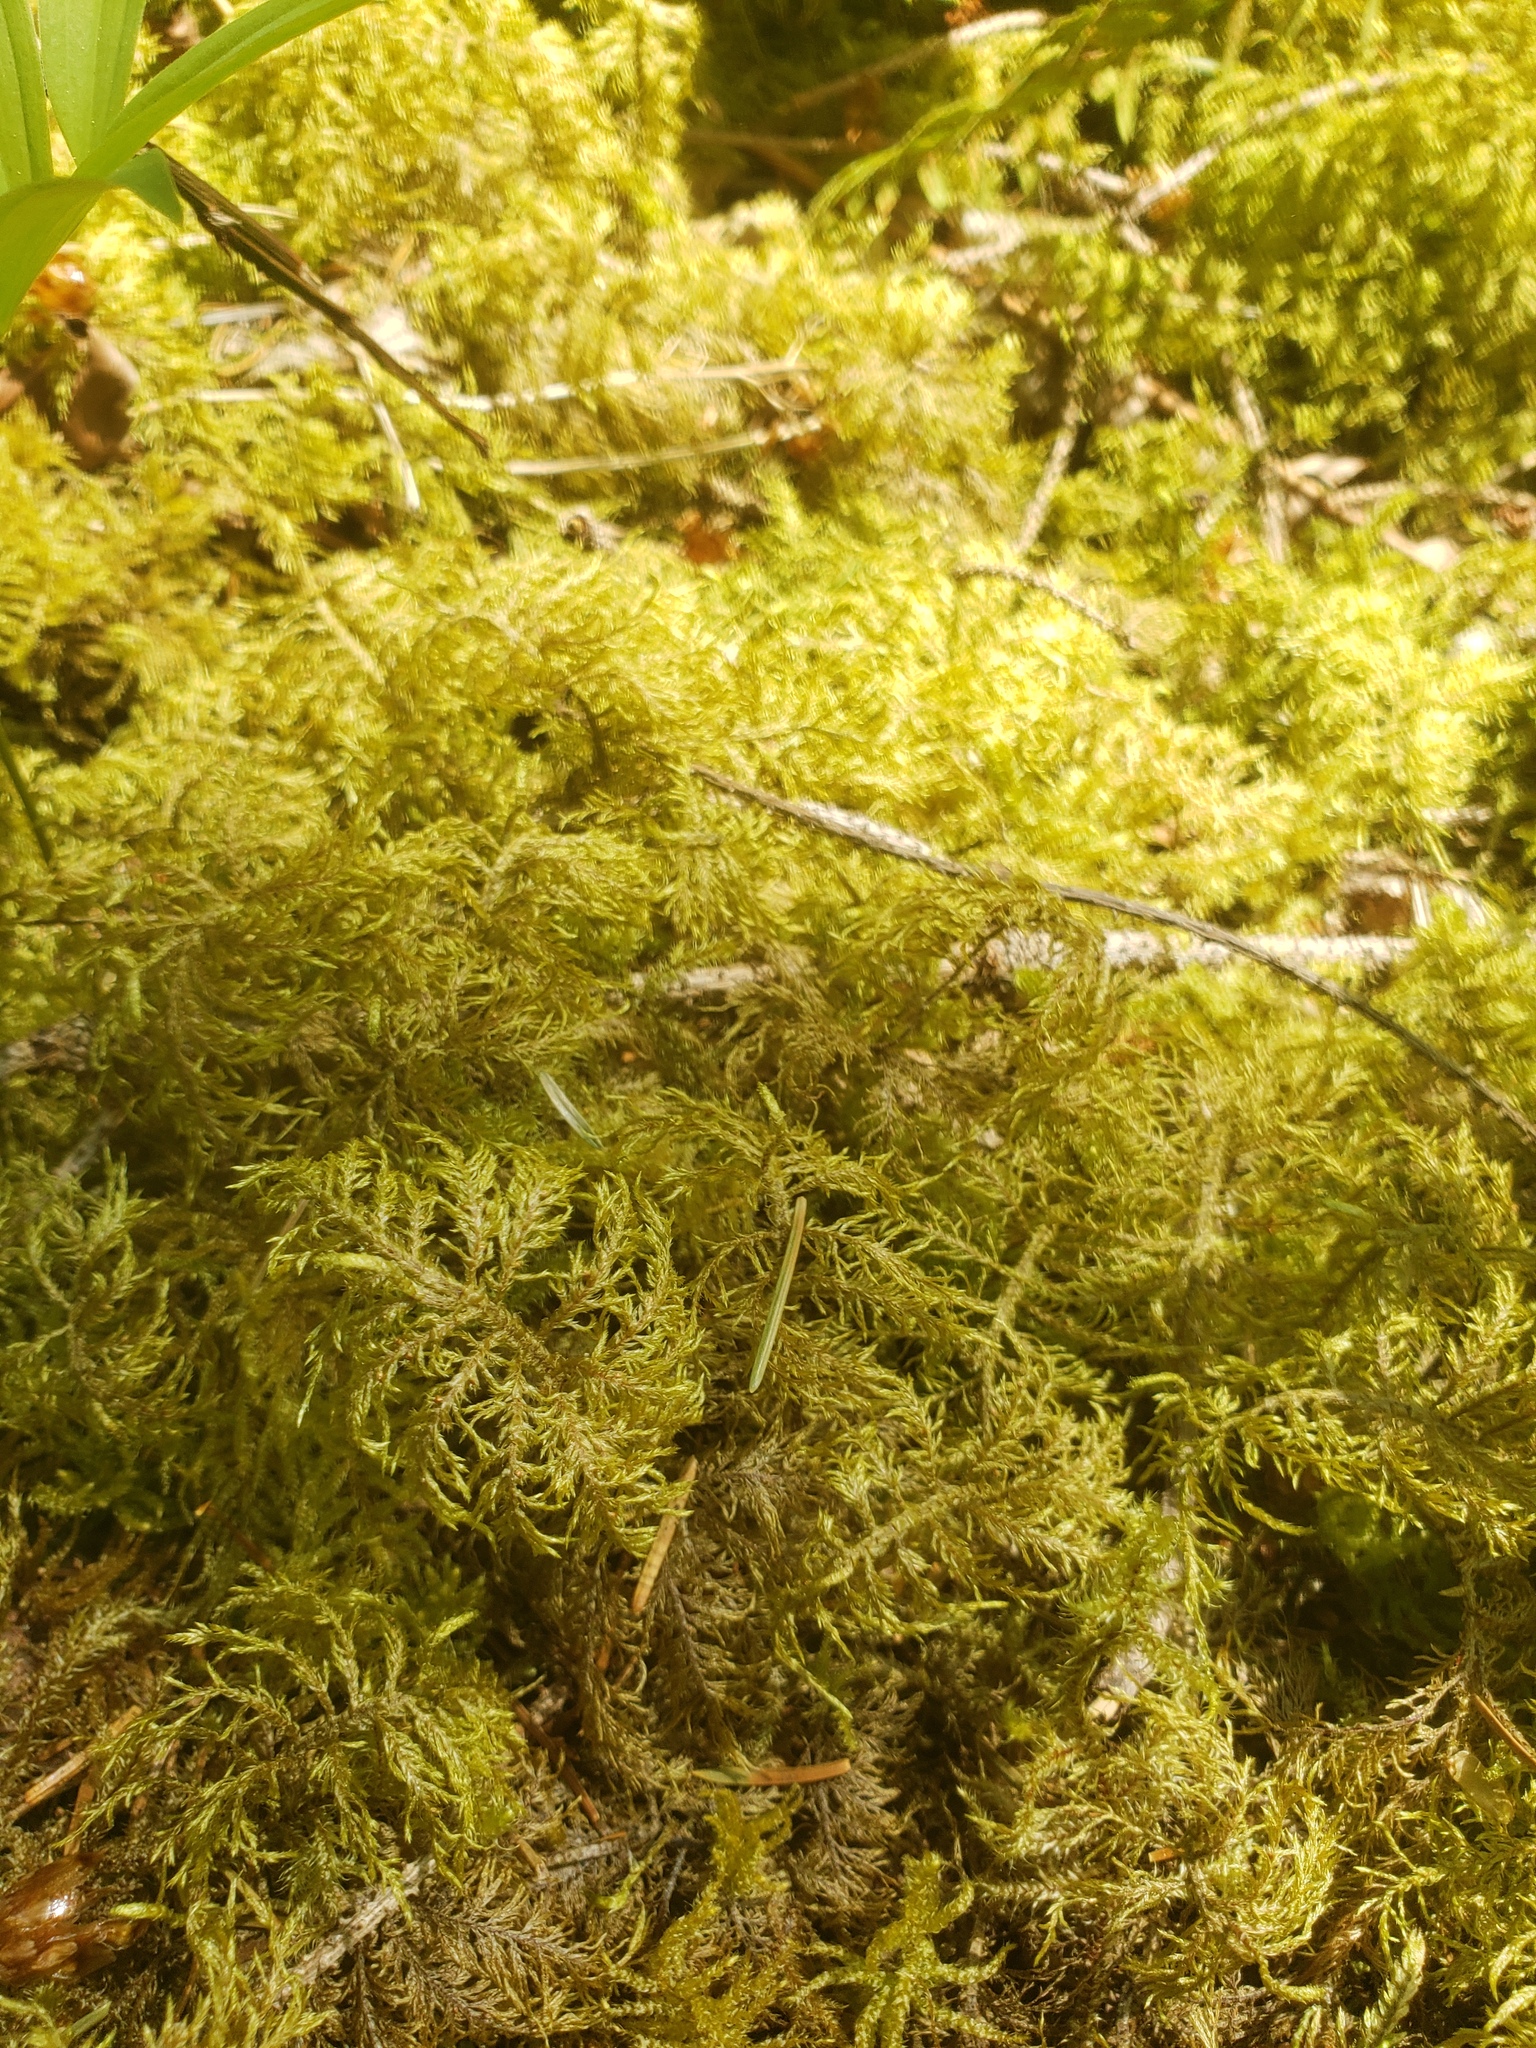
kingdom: Plantae
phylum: Bryophyta
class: Bryopsida
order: Hypnales
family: Hylocomiaceae
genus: Hylocomium
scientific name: Hylocomium splendens
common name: Stairstep moss
